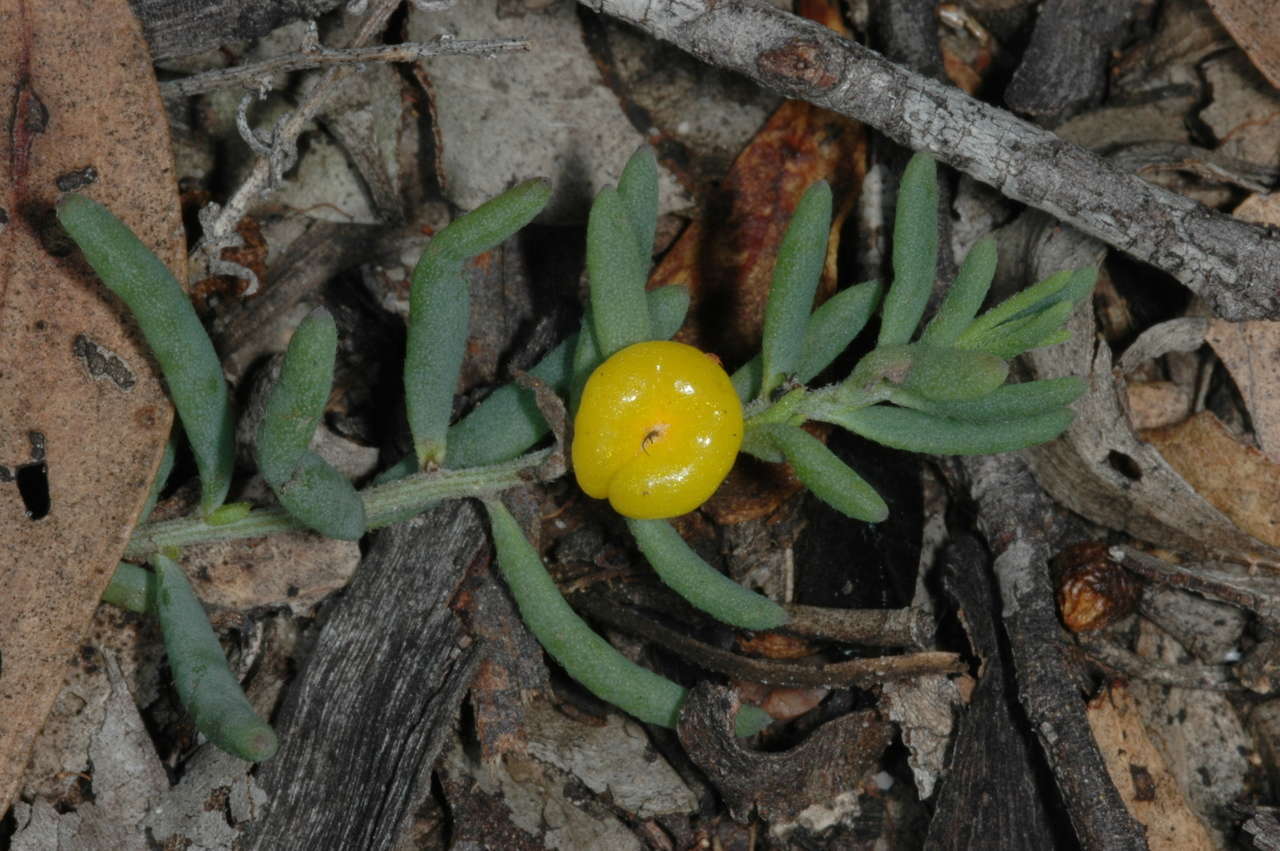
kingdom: Plantae
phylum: Tracheophyta
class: Magnoliopsida
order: Caryophyllales
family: Amaranthaceae
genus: Enchylaena
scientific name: Enchylaena tomentosa
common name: Ruby saltbush
